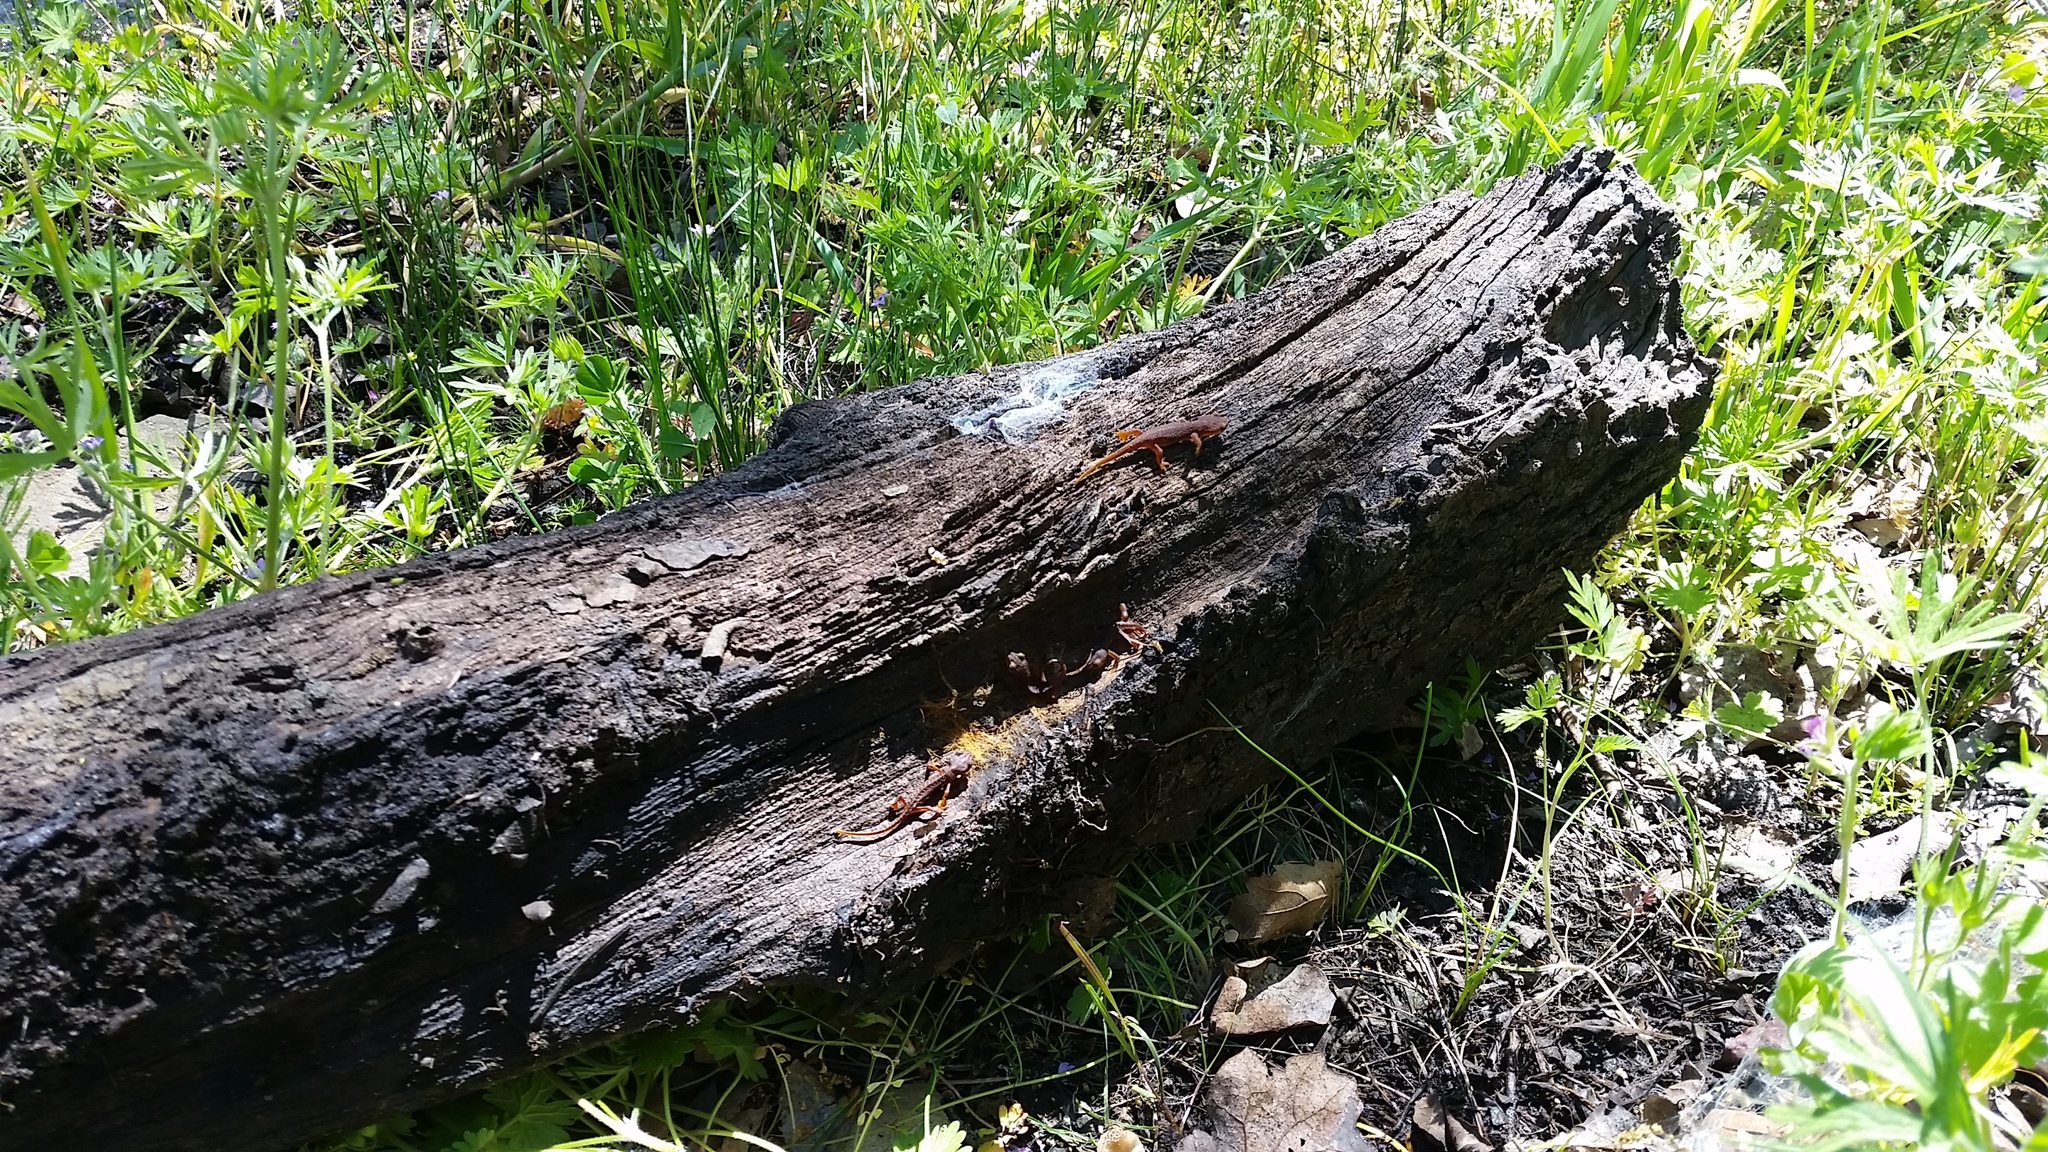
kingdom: Animalia
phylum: Chordata
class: Amphibia
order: Caudata
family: Salamandridae
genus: Taricha
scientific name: Taricha torosa
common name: California newt
